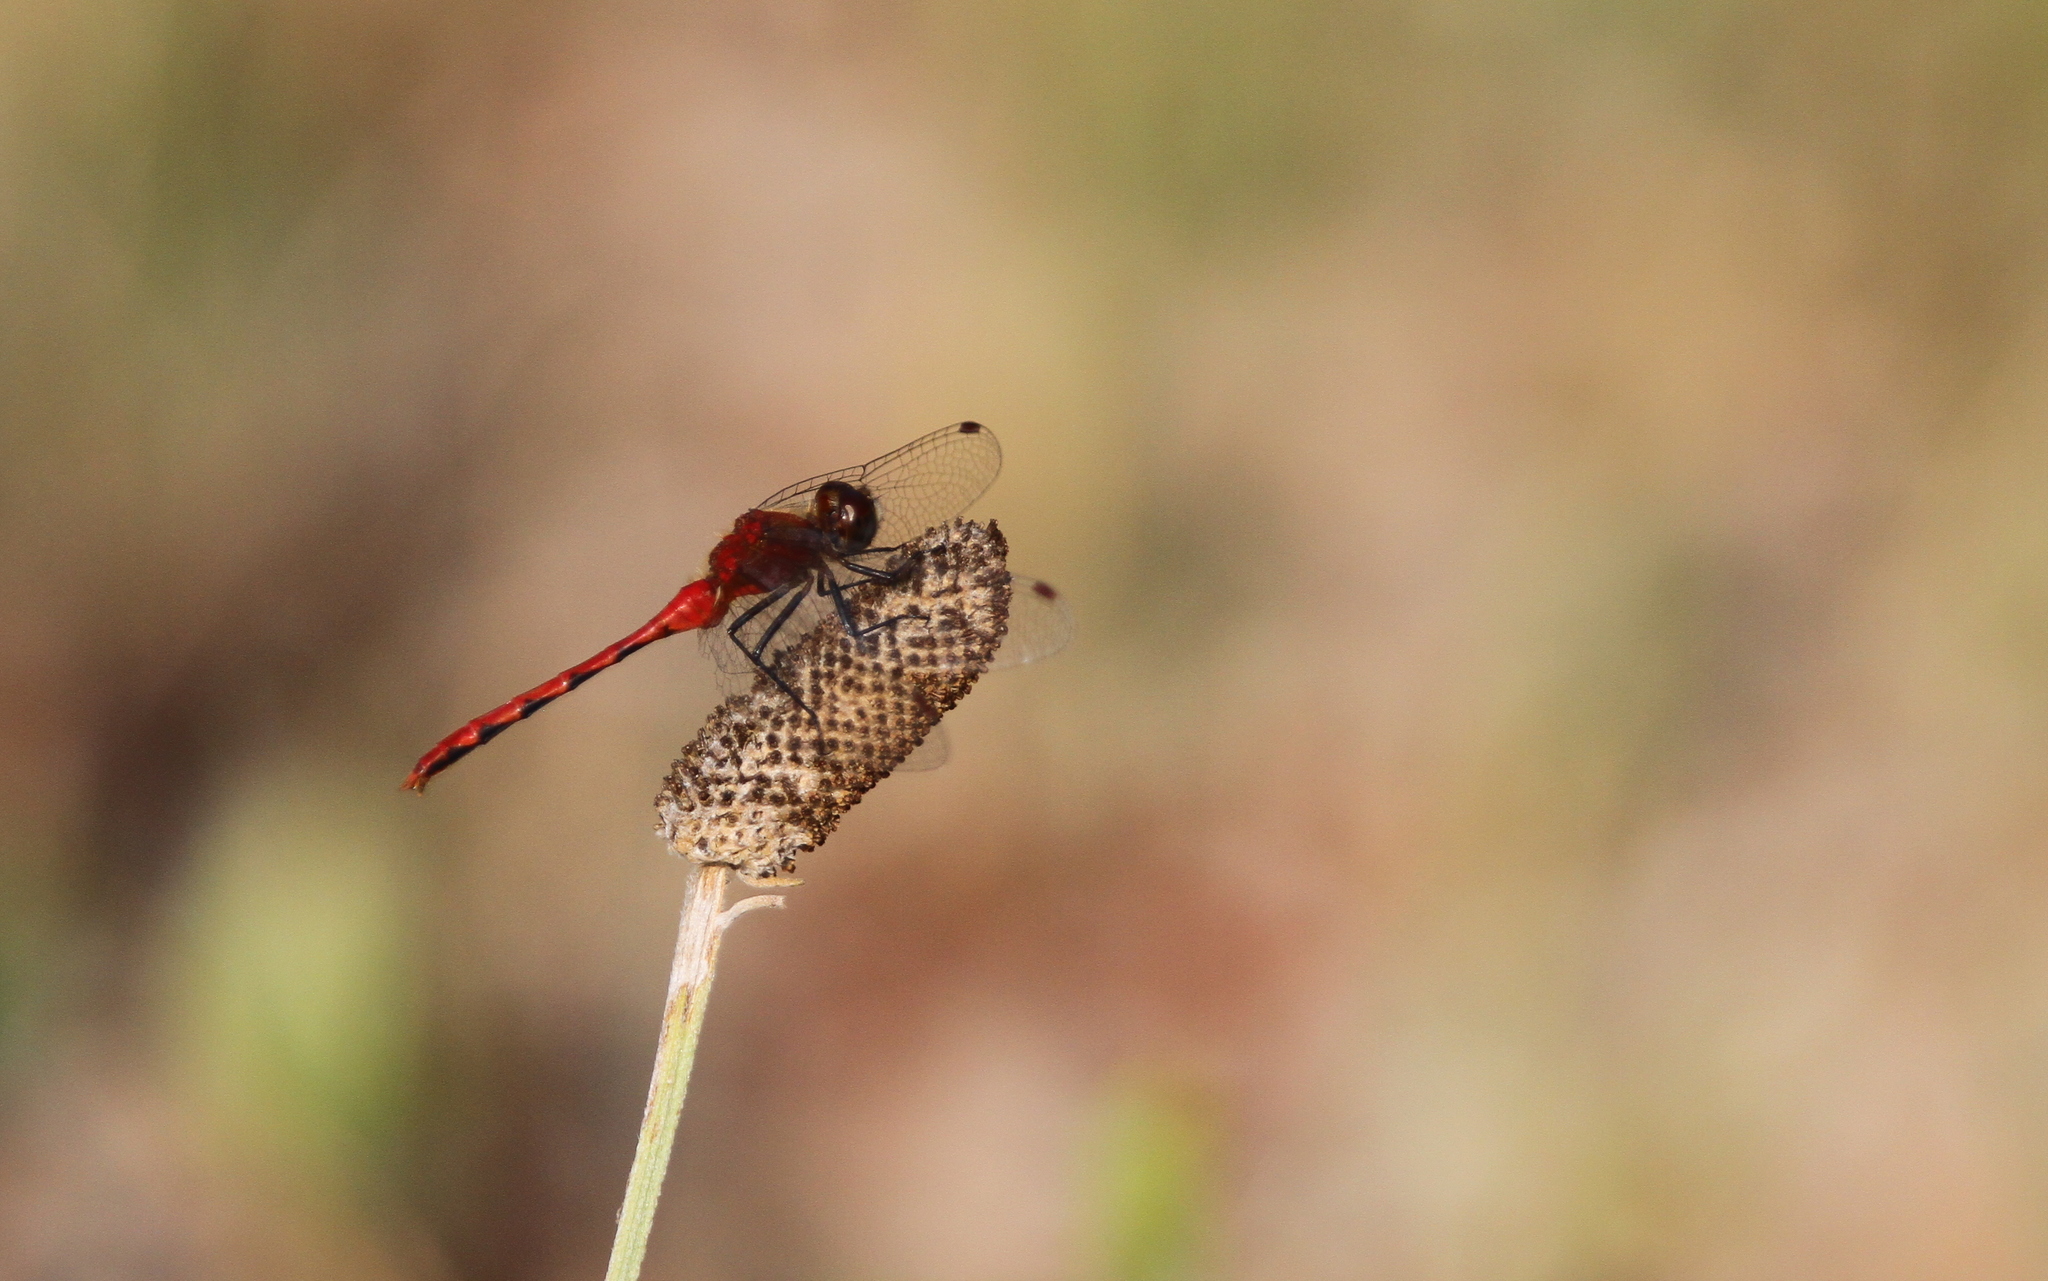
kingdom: Animalia
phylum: Arthropoda
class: Insecta
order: Odonata
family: Libellulidae
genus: Sympetrum
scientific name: Sympetrum obtrusum
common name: White-faced meadowhawk
